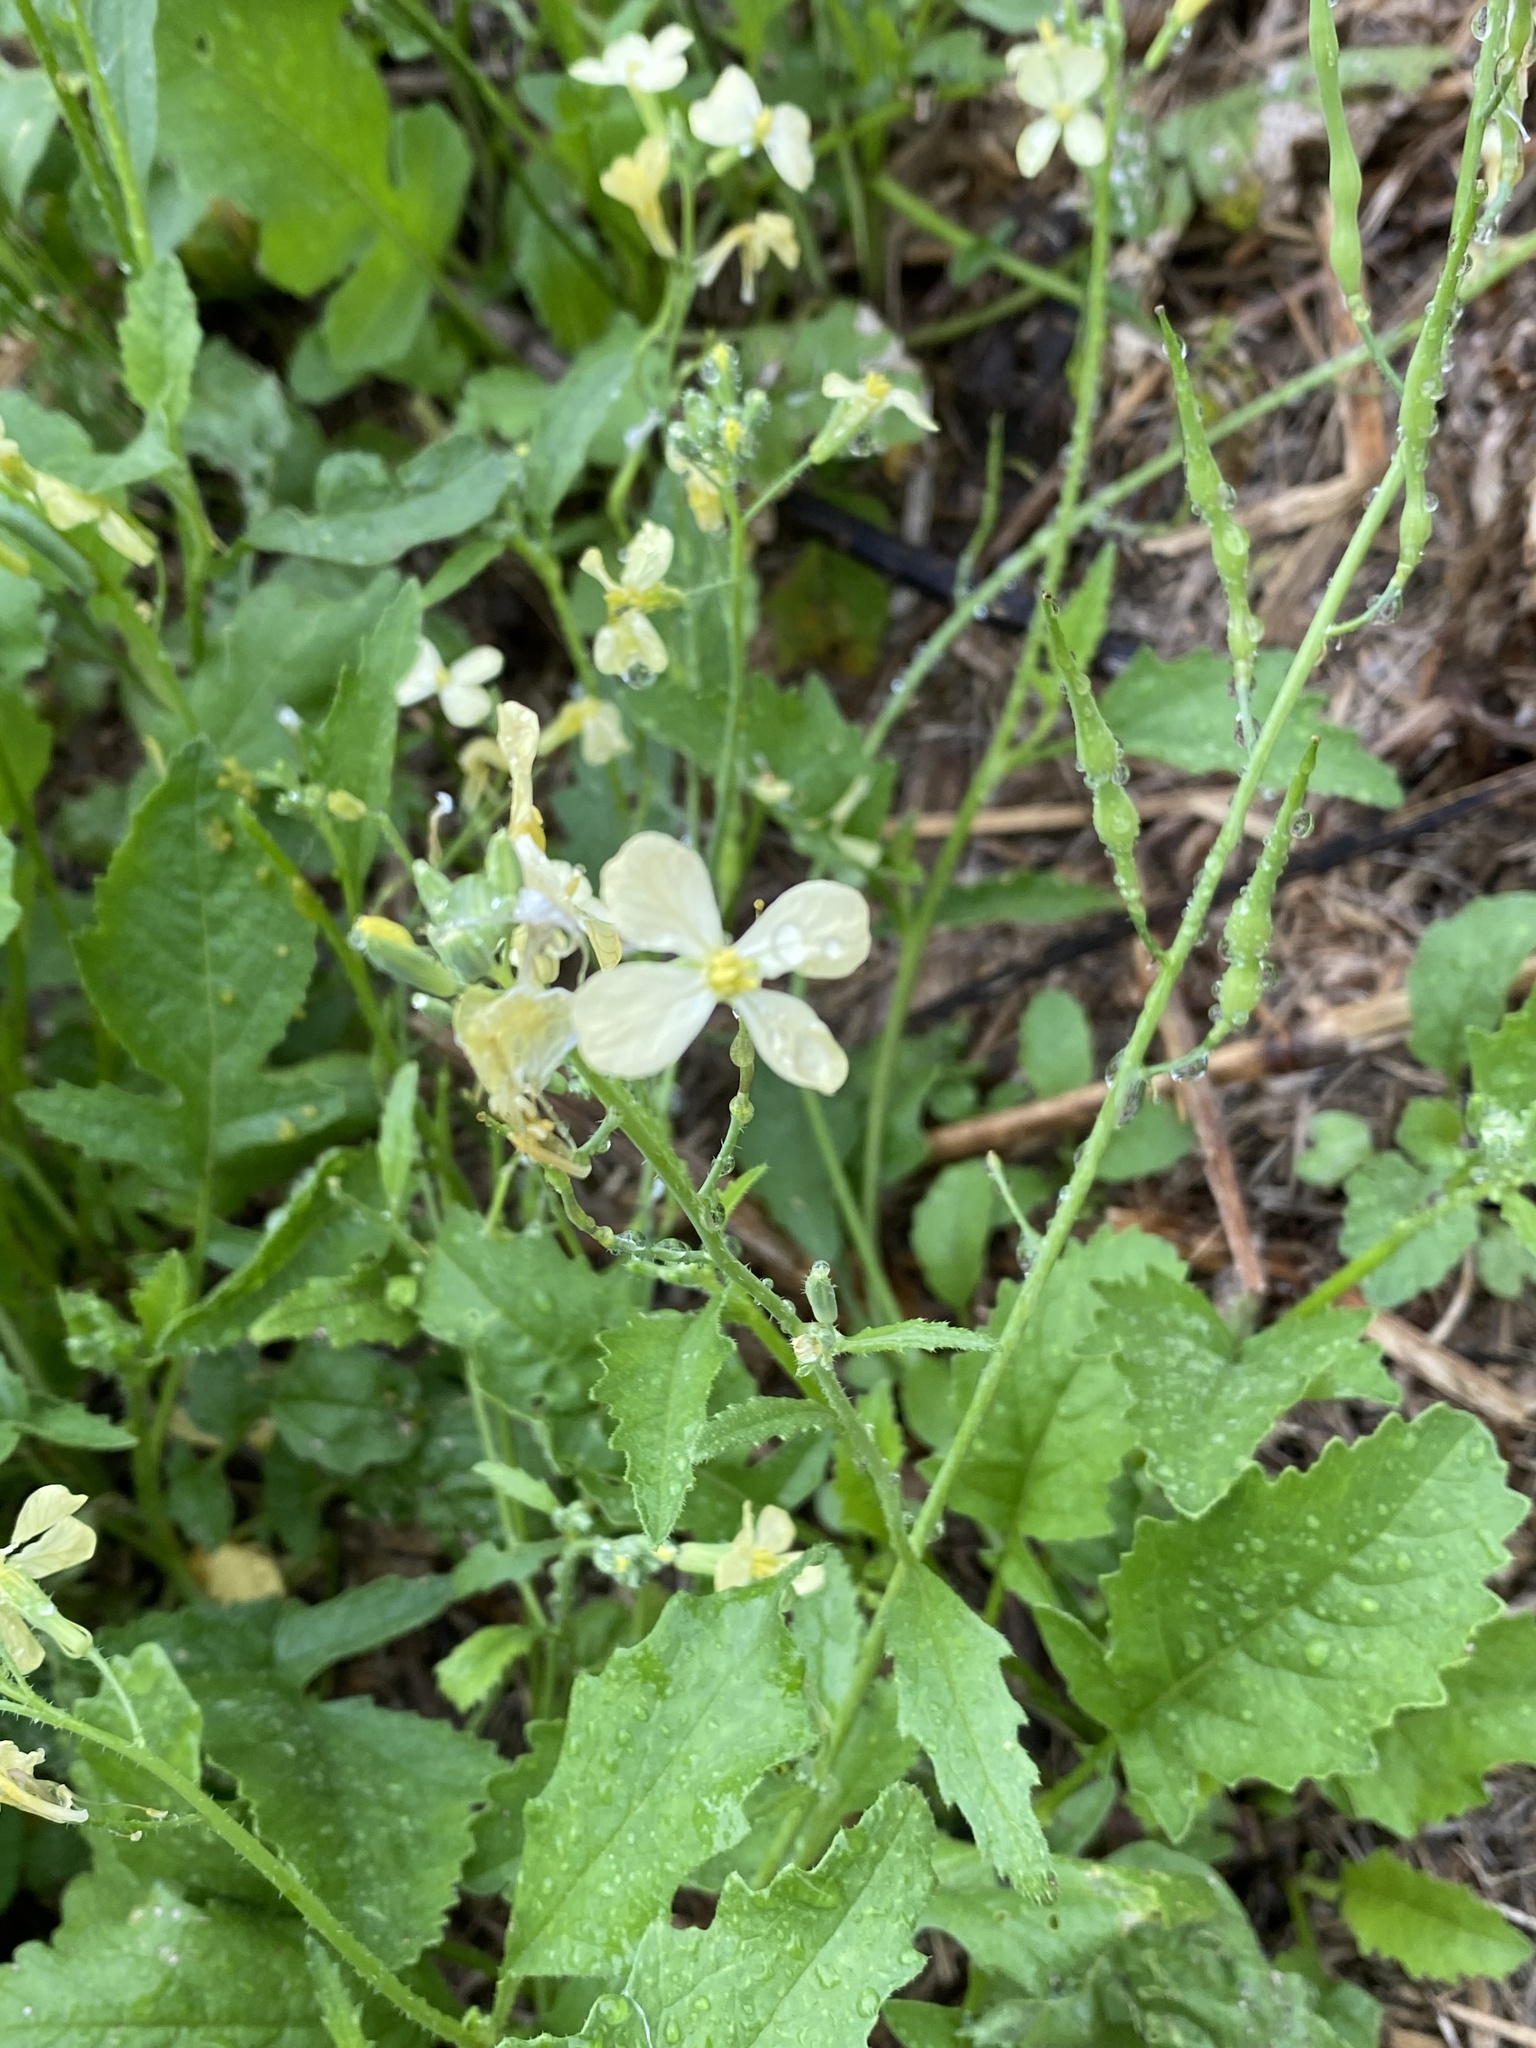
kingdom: Plantae
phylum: Tracheophyta
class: Magnoliopsida
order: Brassicales
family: Brassicaceae
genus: Raphanus
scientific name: Raphanus raphanistrum
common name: Wild radish
